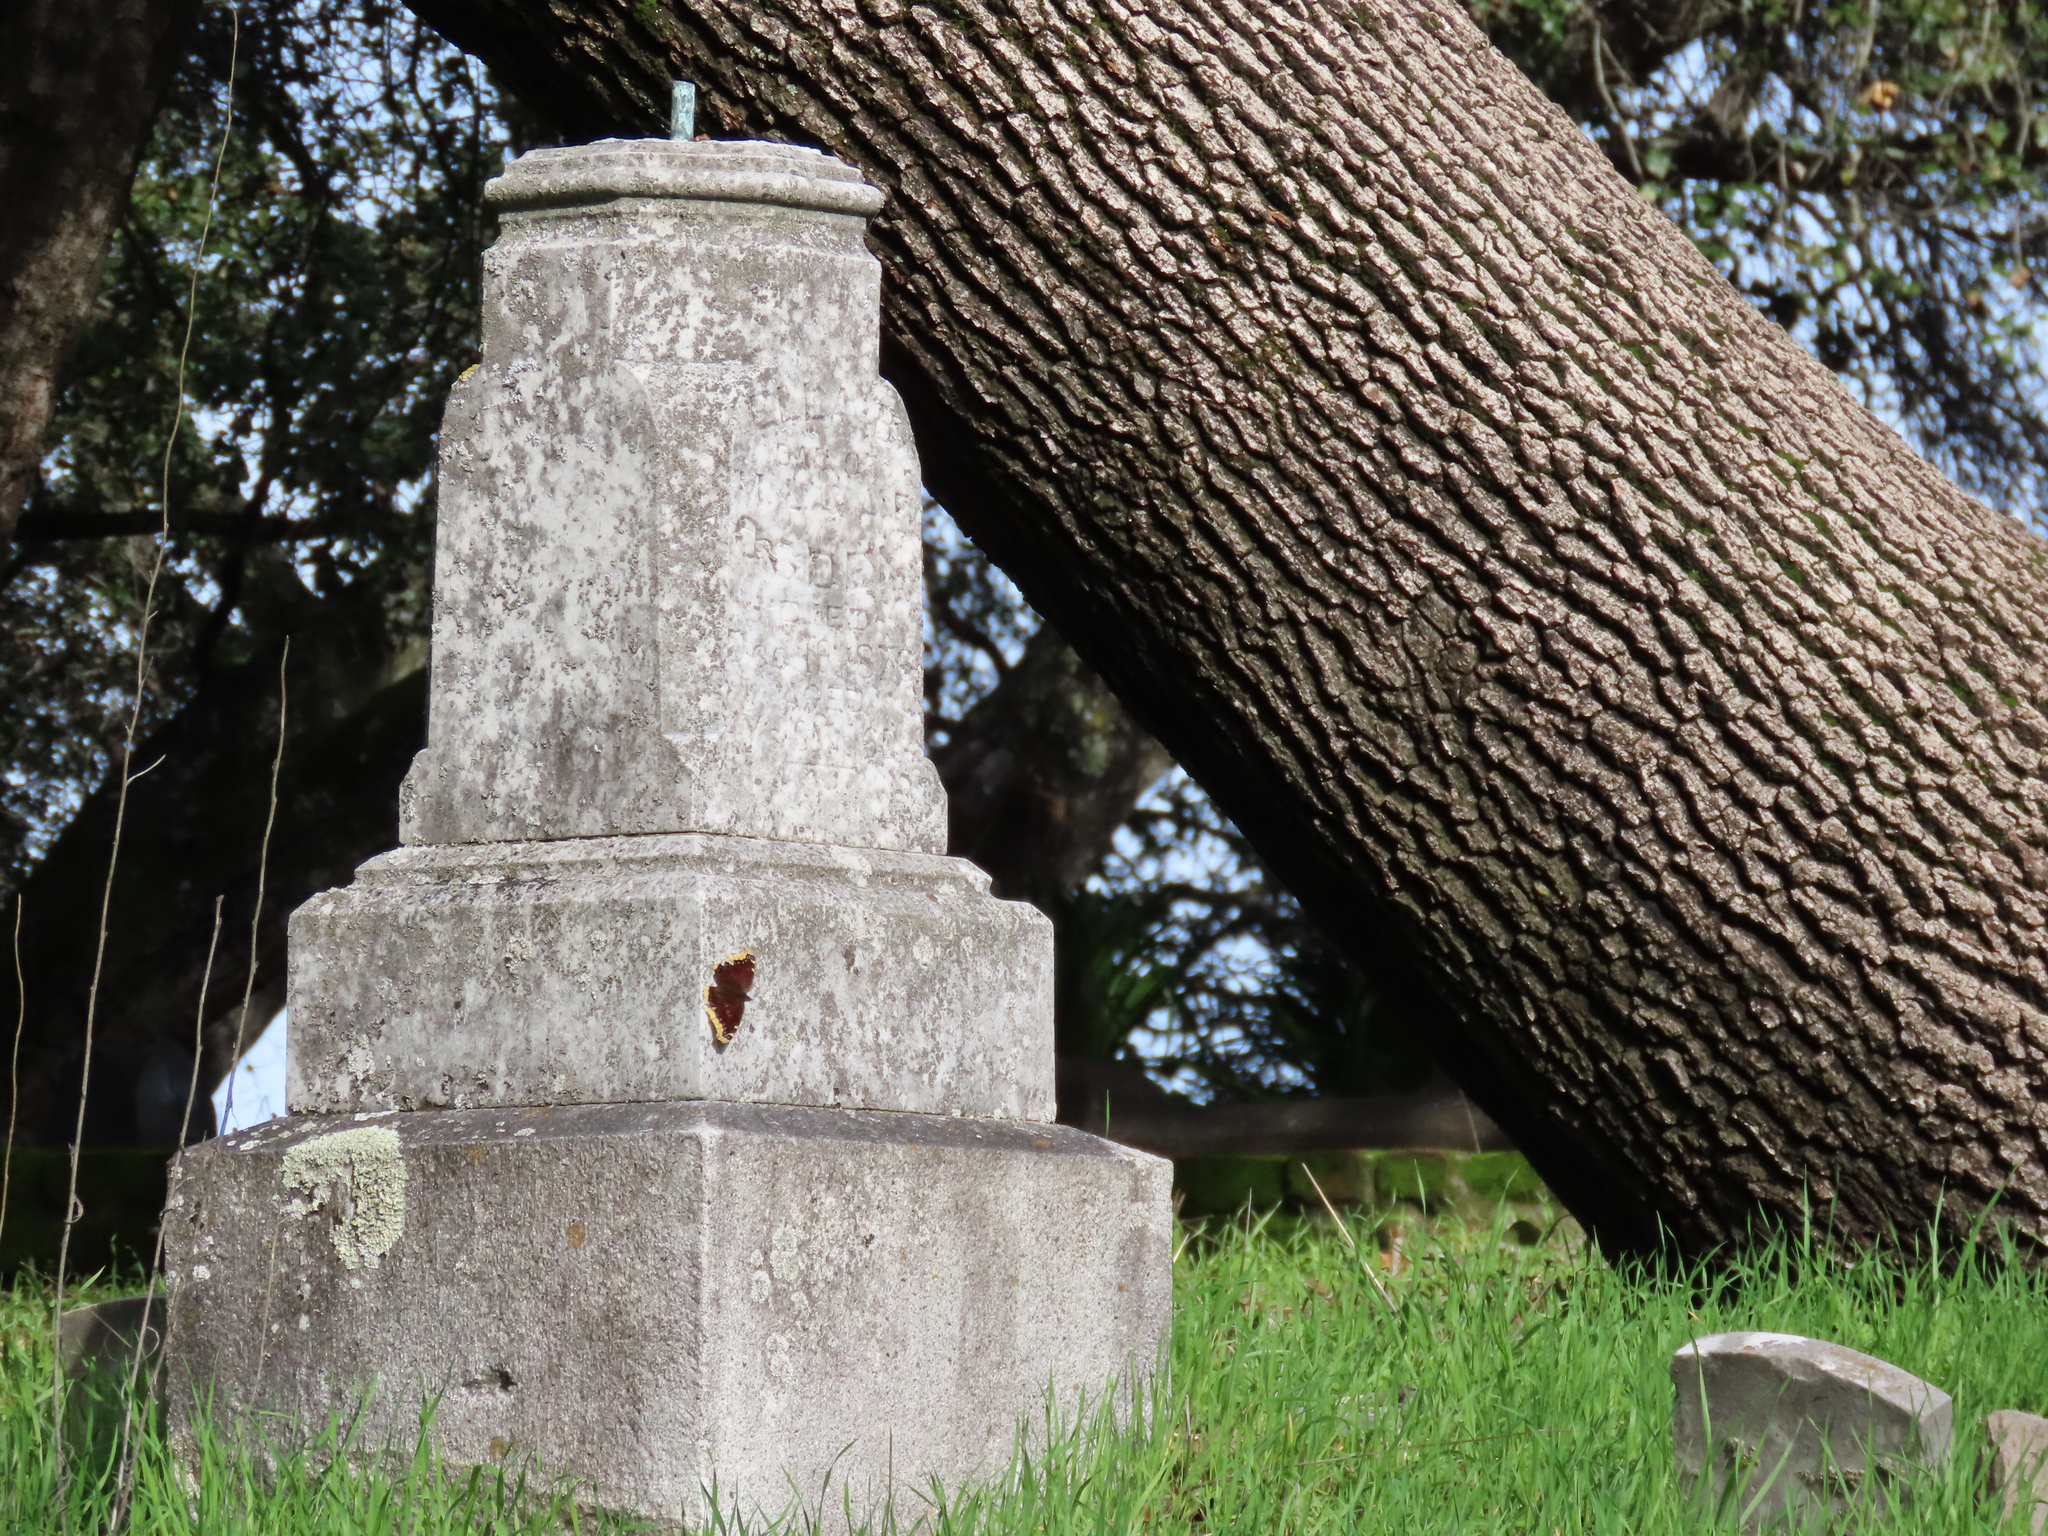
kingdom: Animalia
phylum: Arthropoda
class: Insecta
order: Lepidoptera
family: Nymphalidae
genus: Nymphalis
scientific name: Nymphalis antiopa
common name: Camberwell beauty
